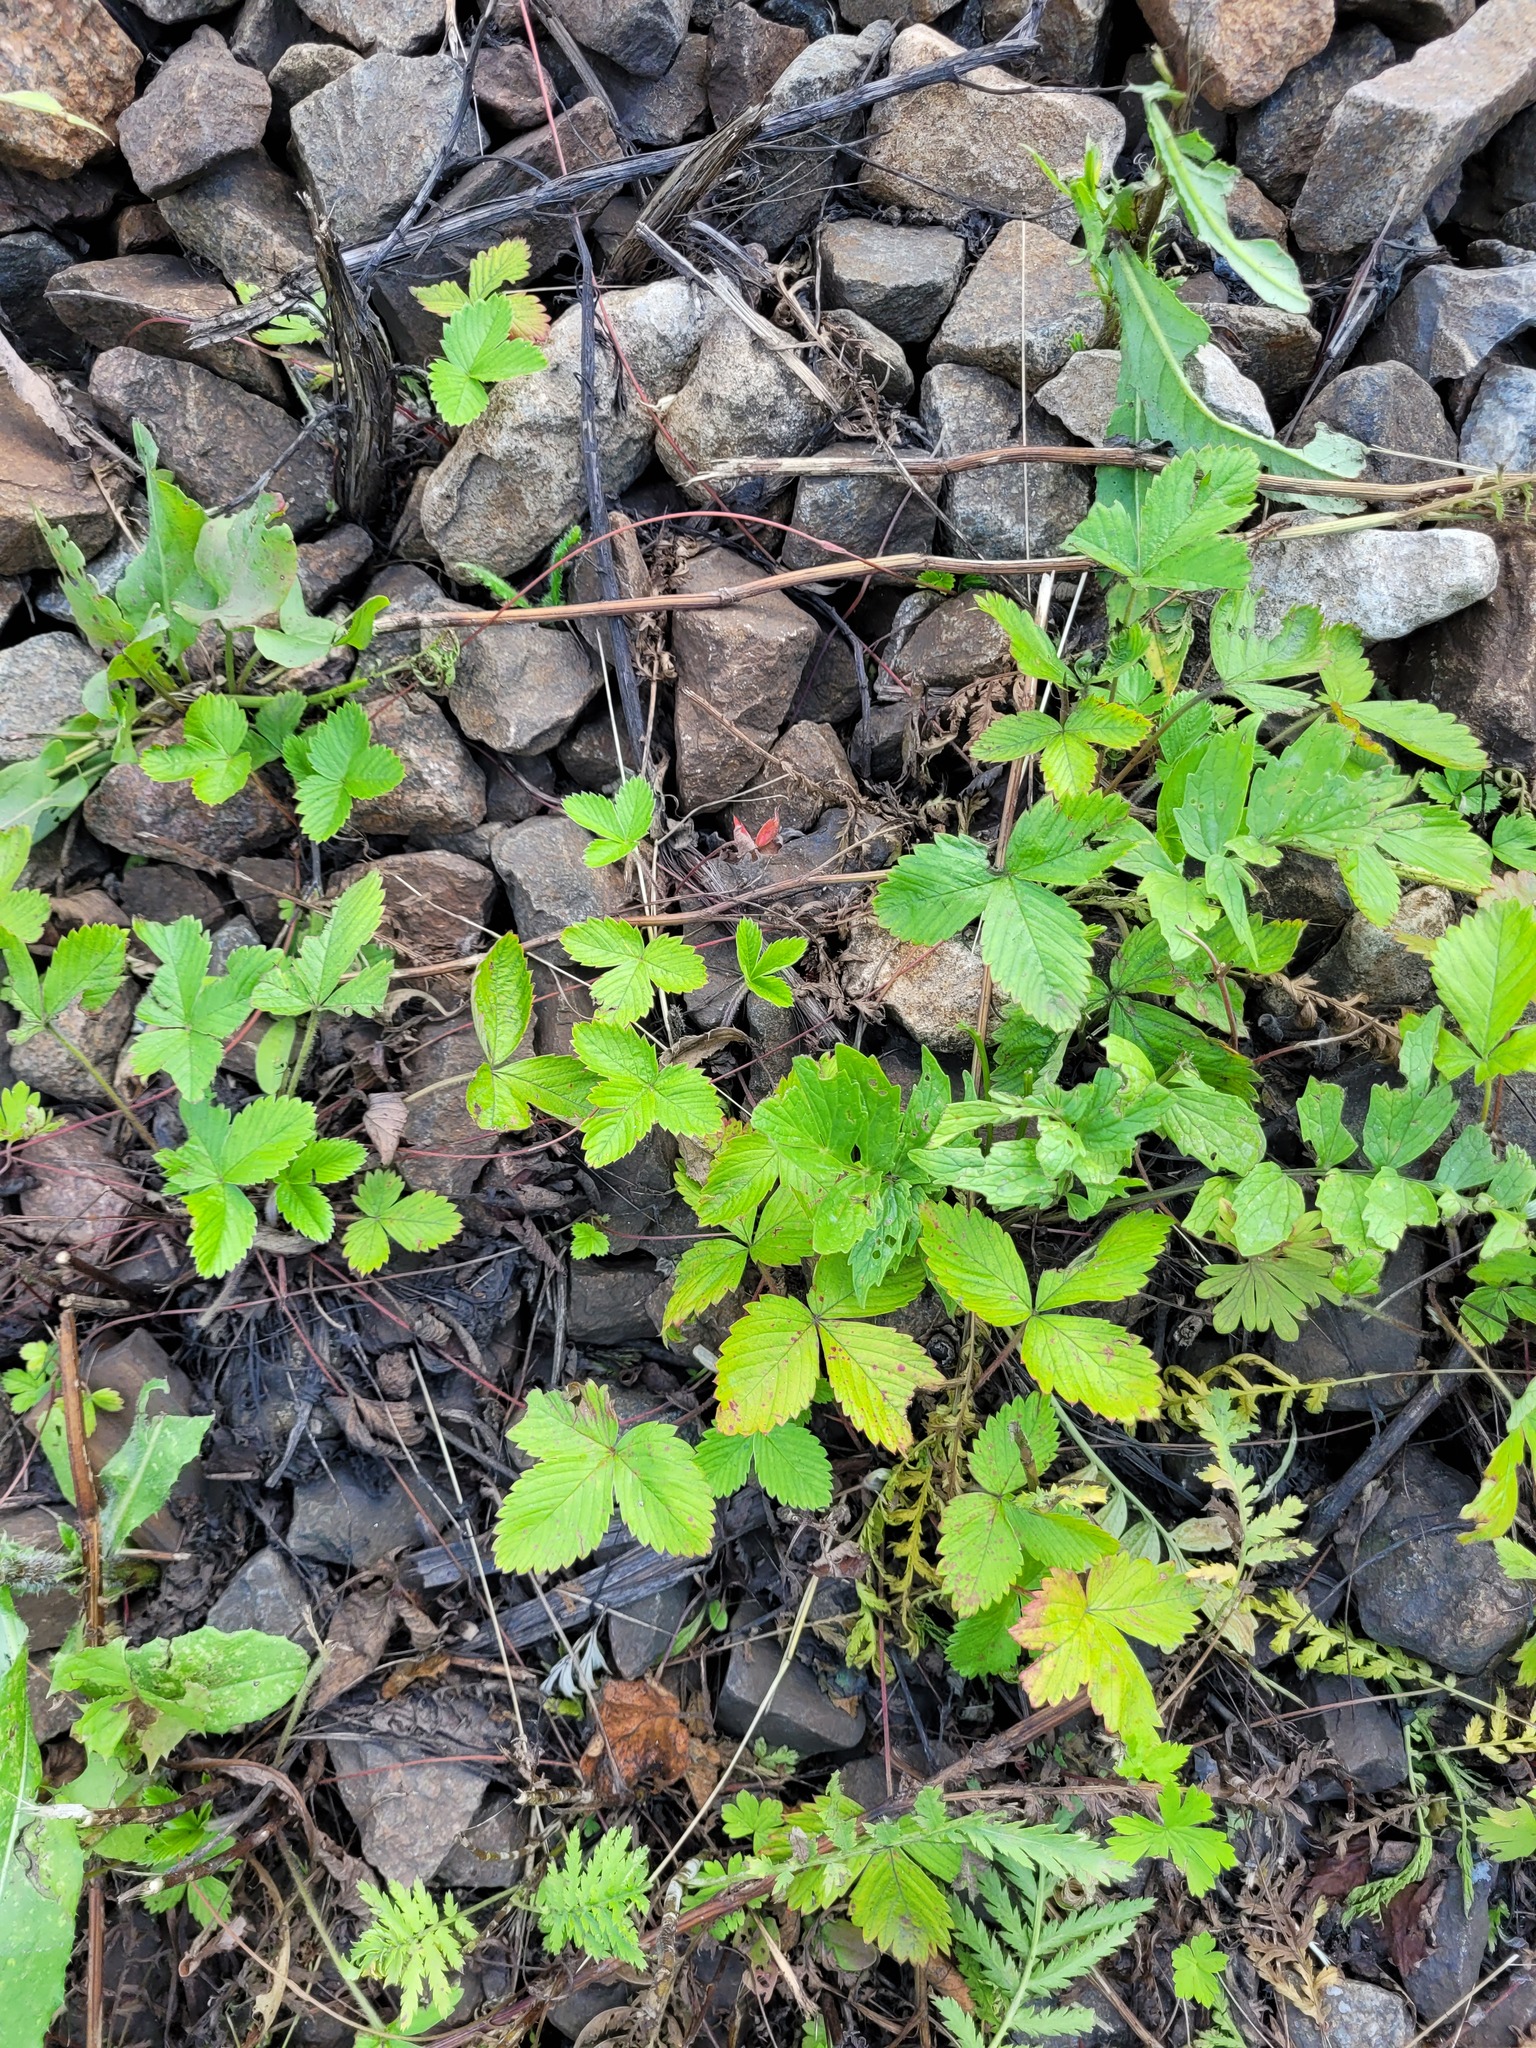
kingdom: Plantae
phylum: Tracheophyta
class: Magnoliopsida
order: Rosales
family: Rosaceae
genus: Fragaria
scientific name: Fragaria vesca
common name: Wild strawberry
